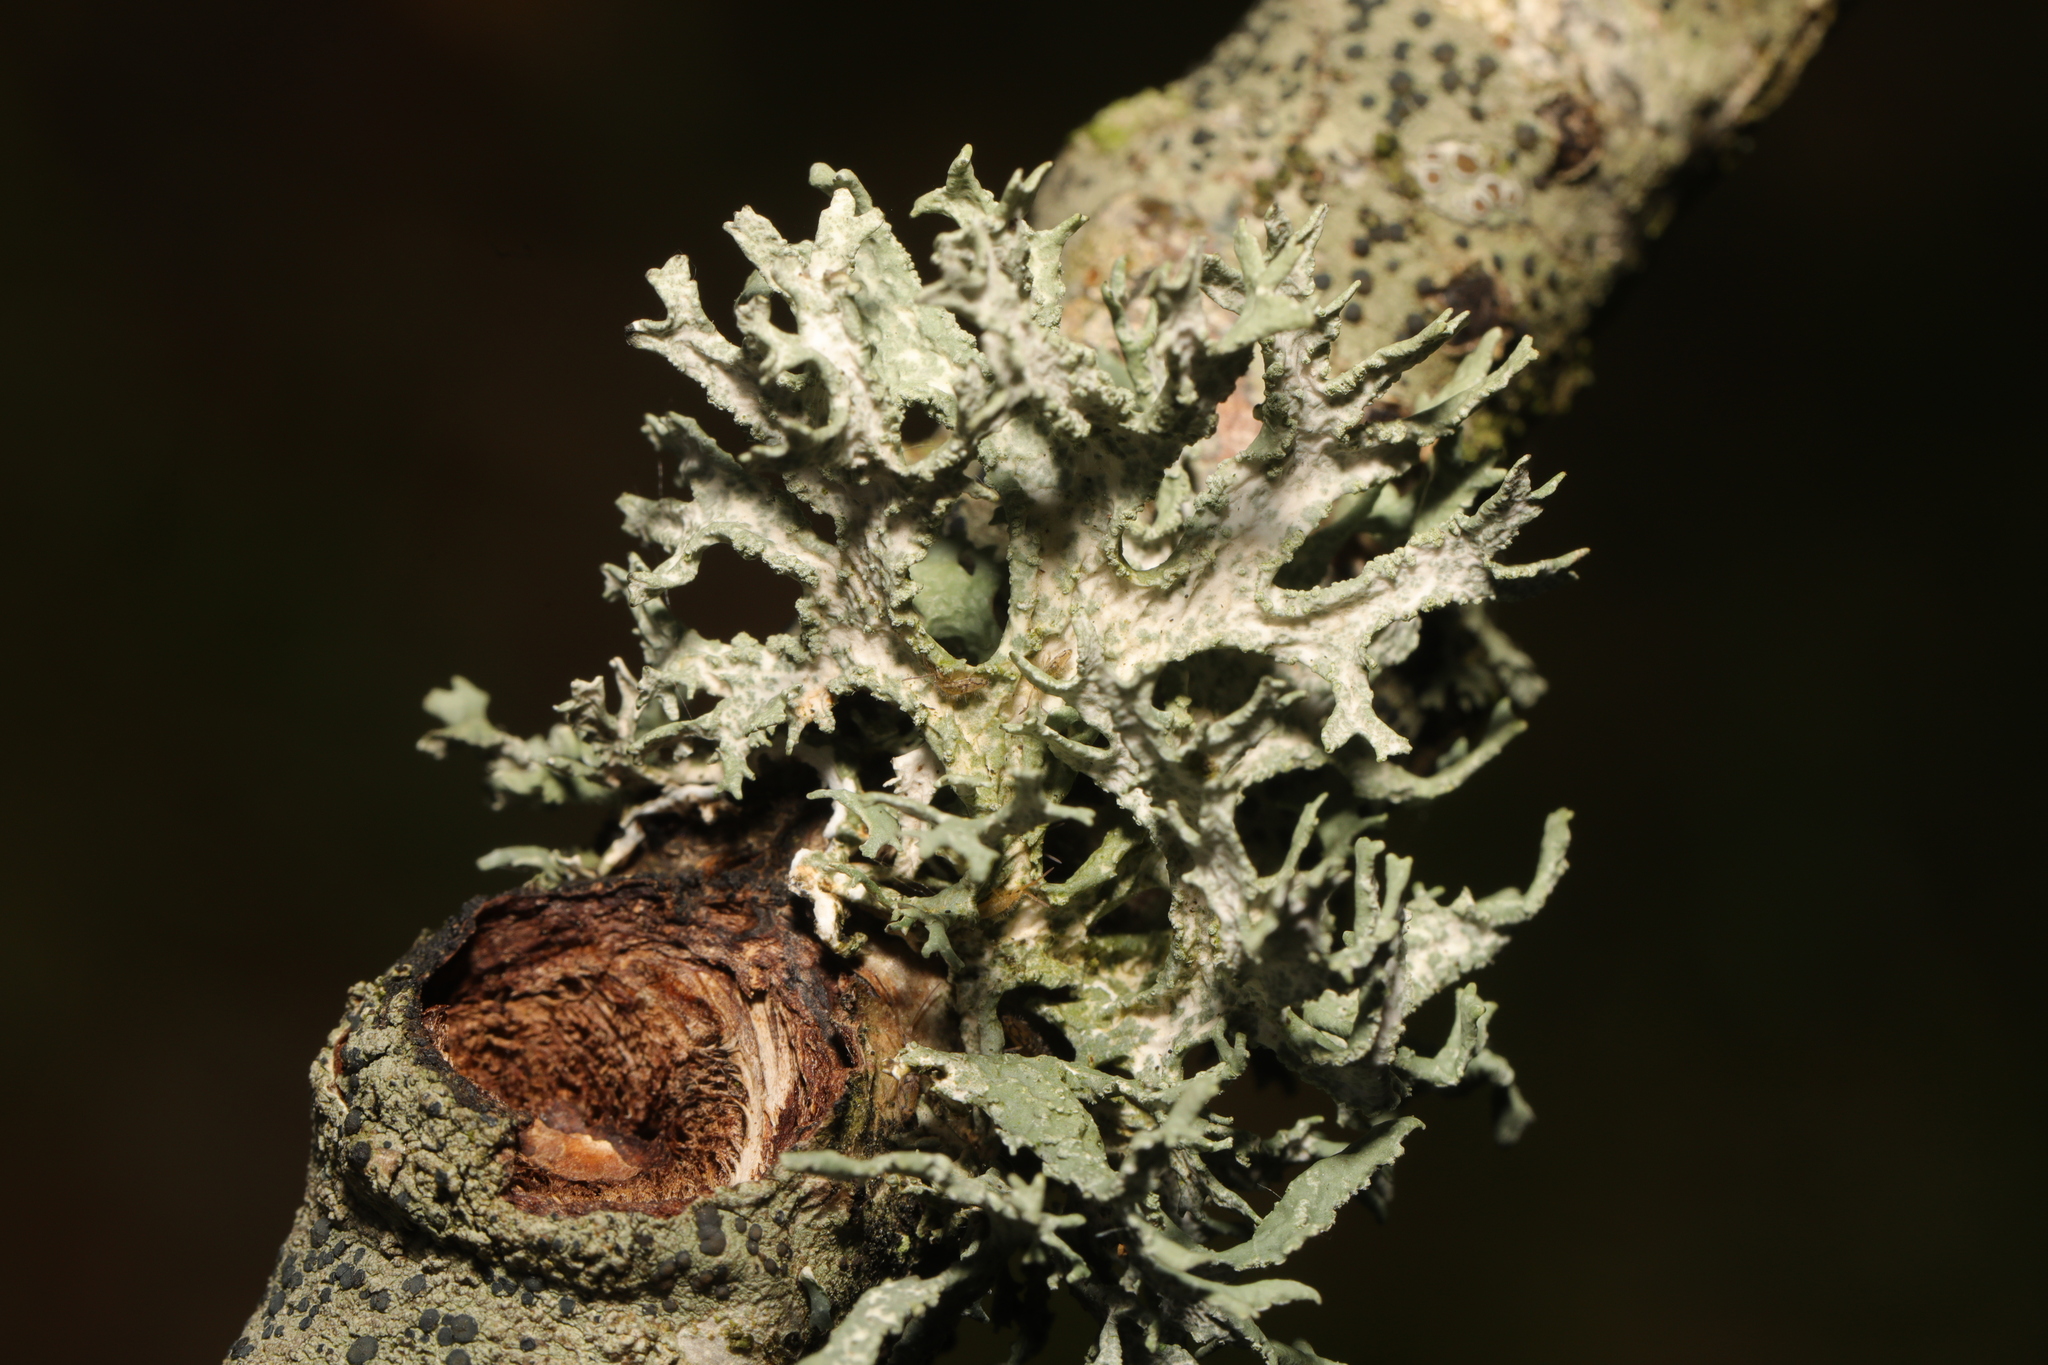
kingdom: Fungi
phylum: Ascomycota
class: Lecanoromycetes
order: Lecanorales
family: Parmeliaceae
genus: Evernia
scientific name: Evernia prunastri
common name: Oak moss
